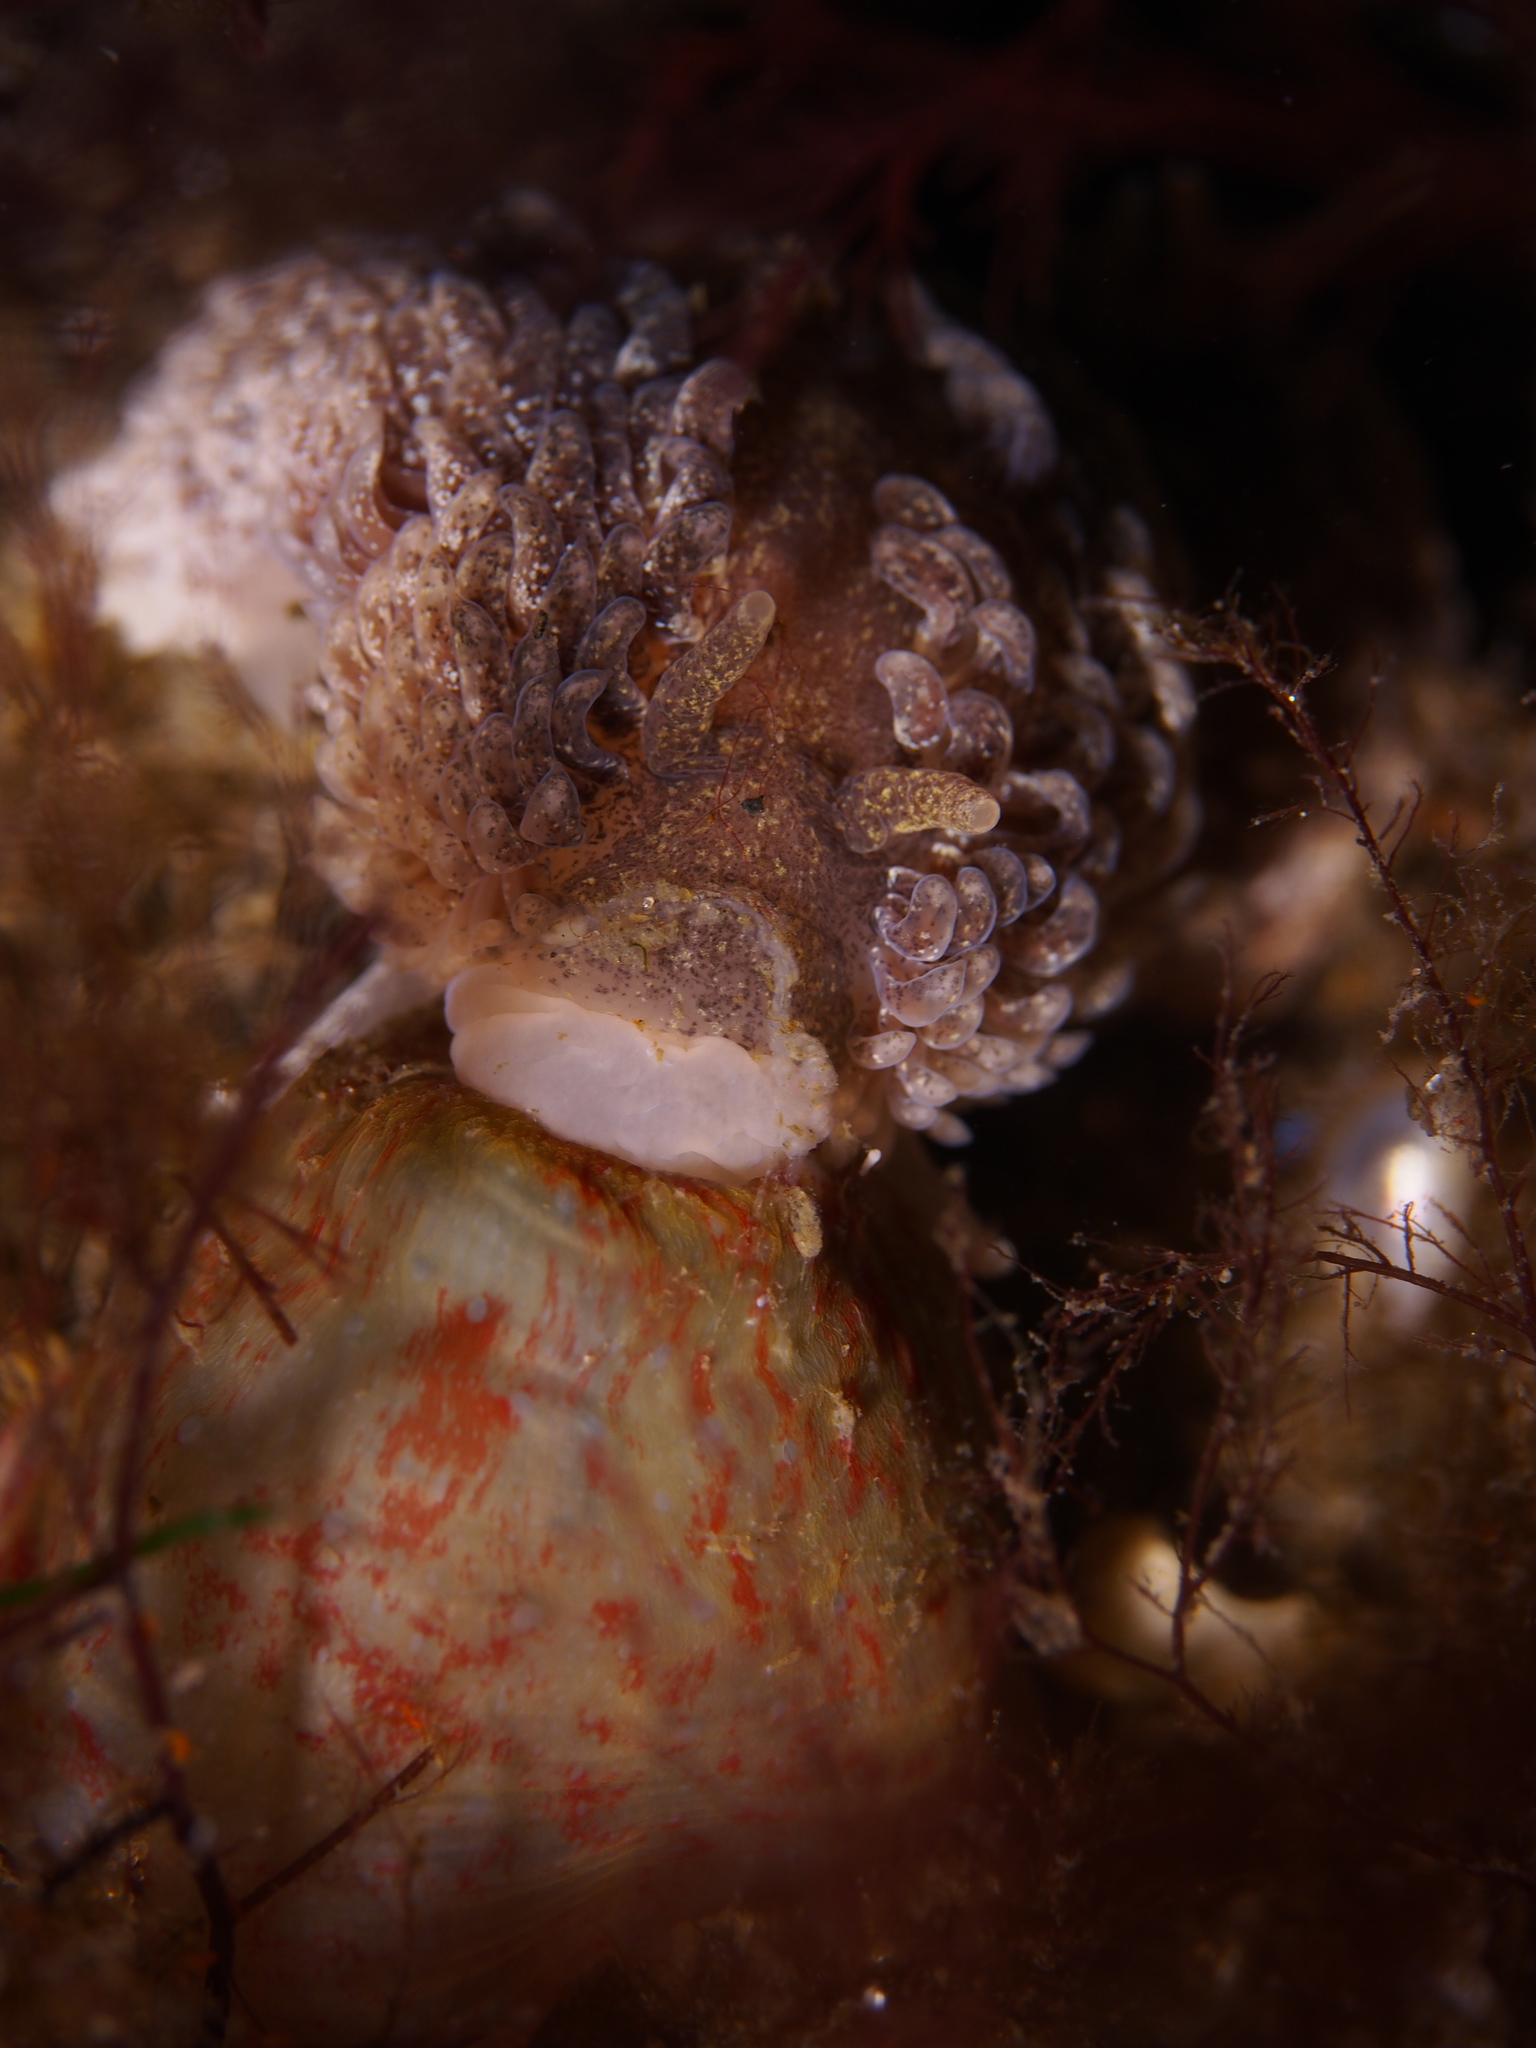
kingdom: Animalia
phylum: Mollusca
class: Gastropoda
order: Nudibranchia
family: Aeolidiidae
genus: Aeolidia
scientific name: Aeolidia papillosa
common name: Common grey sea slug
